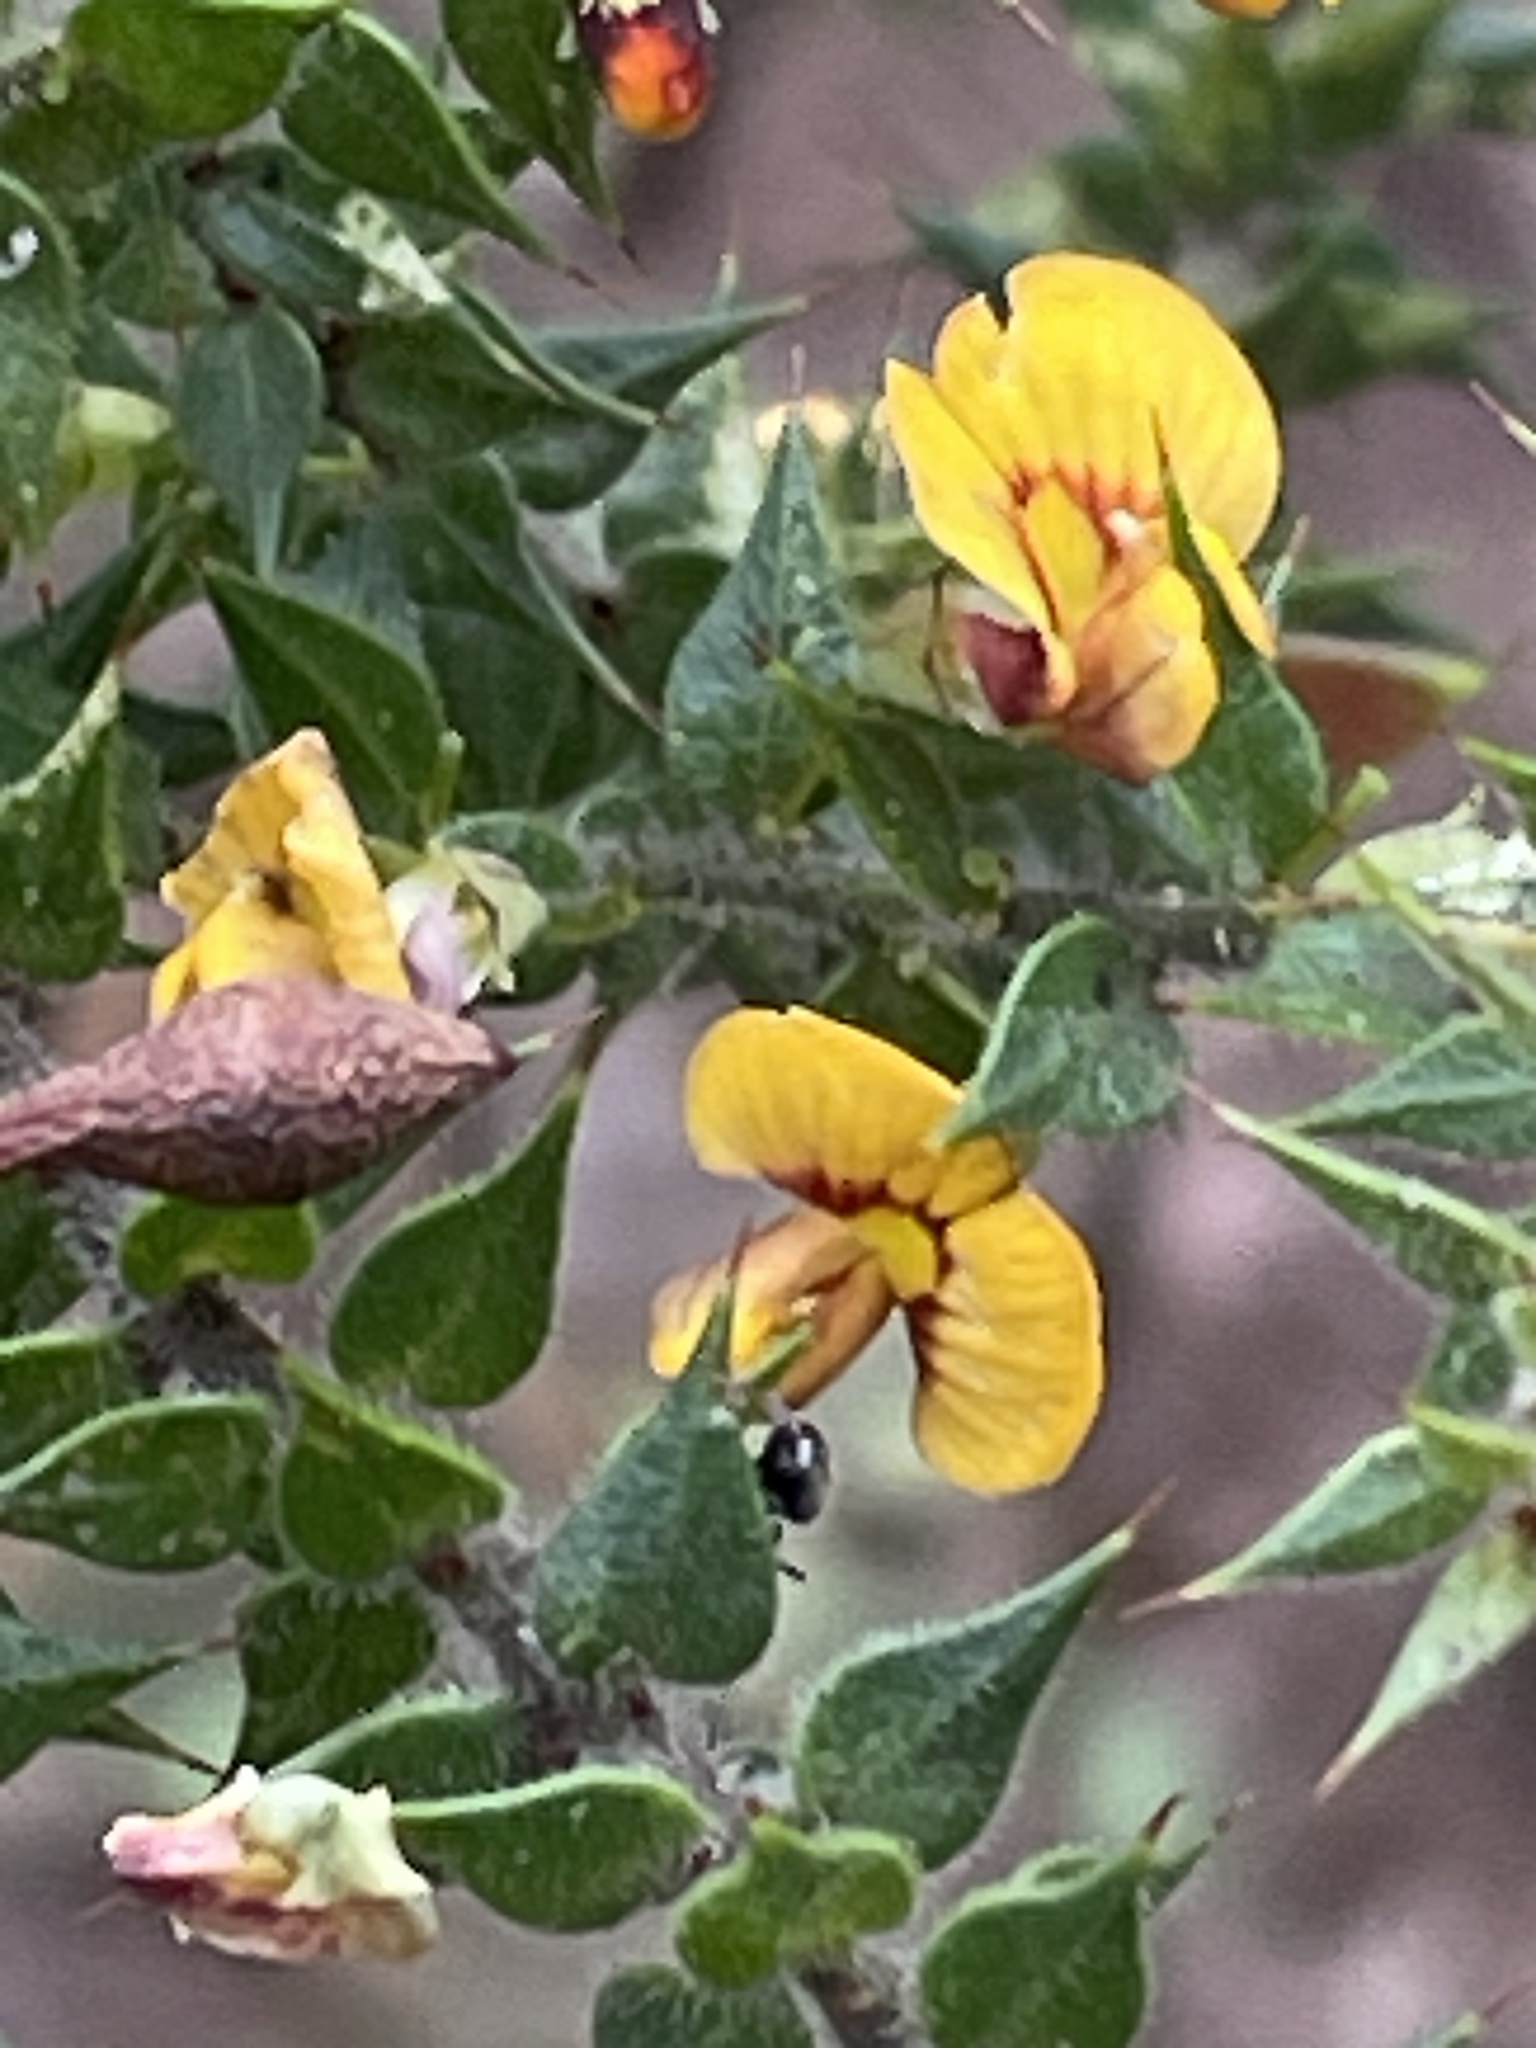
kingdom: Plantae
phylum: Tracheophyta
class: Magnoliopsida
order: Fabales
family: Fabaceae
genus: Daviesia
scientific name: Daviesia villifera
